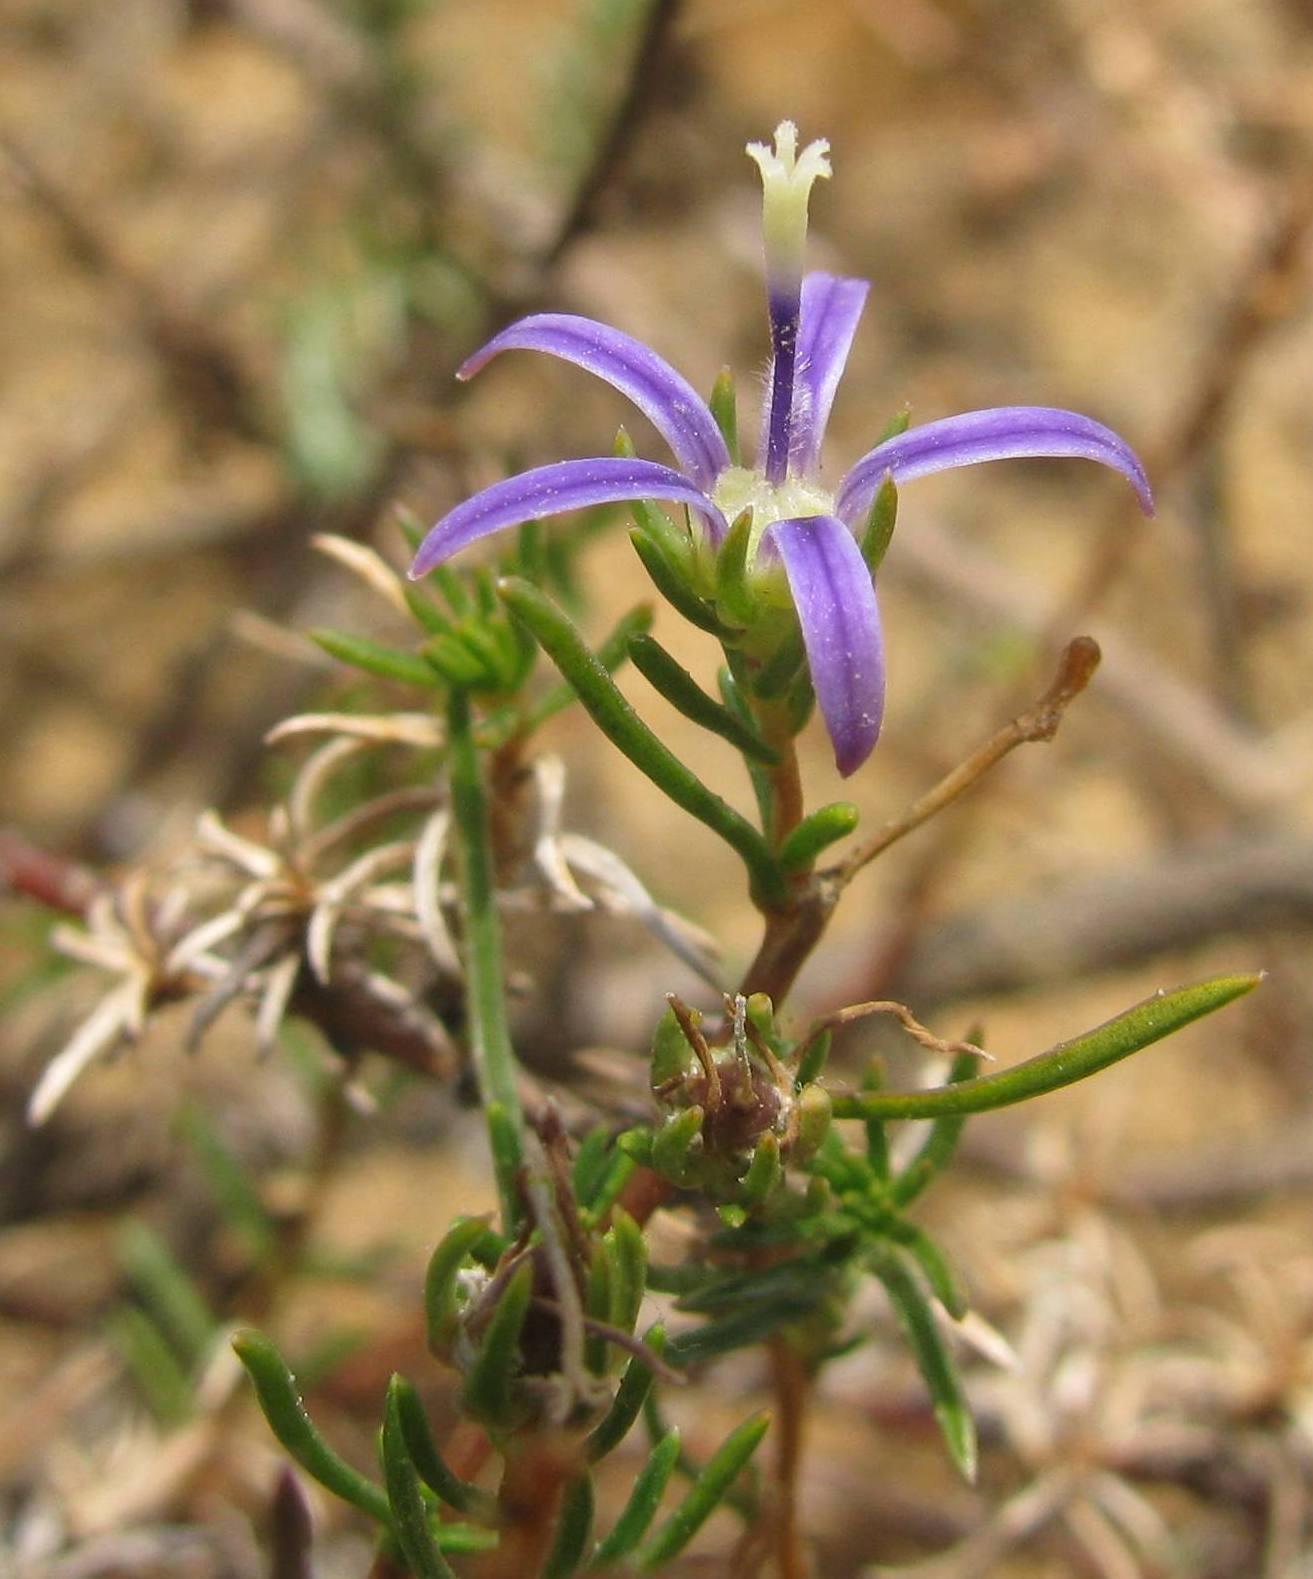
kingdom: Plantae
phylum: Tracheophyta
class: Magnoliopsida
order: Asterales
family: Campanulaceae
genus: Wahlenbergia
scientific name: Wahlenbergia subulata
